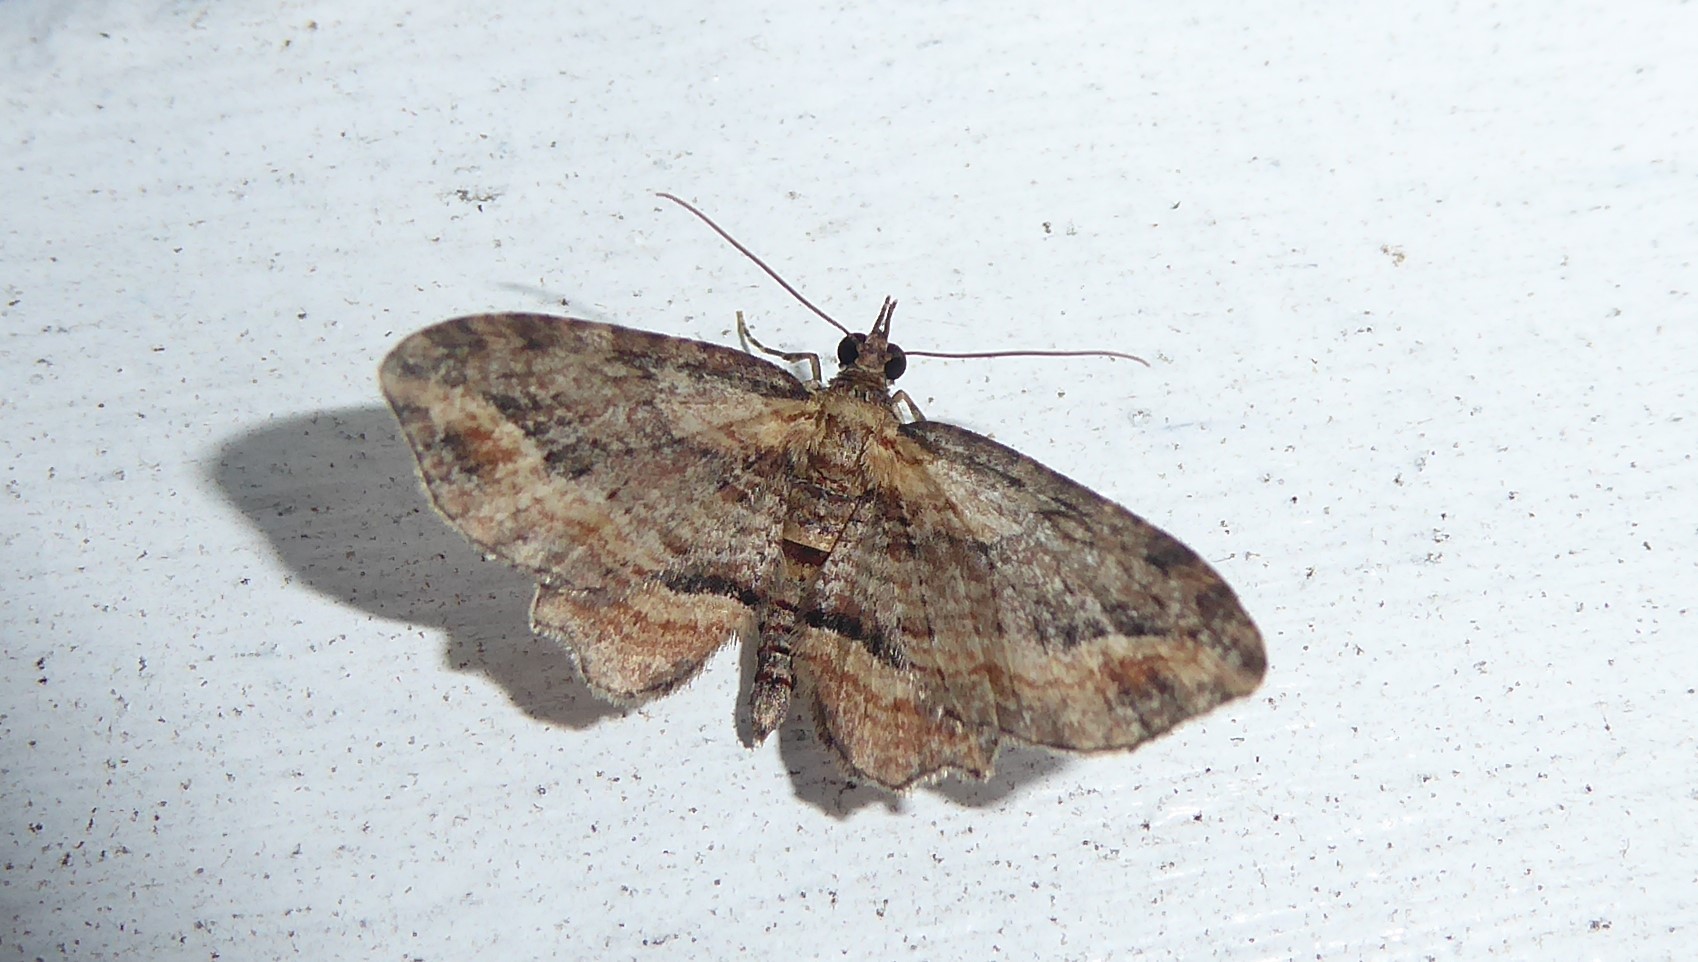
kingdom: Animalia
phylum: Arthropoda
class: Insecta
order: Lepidoptera
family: Geometridae
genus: Chloroclystis
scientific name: Chloroclystis filata
